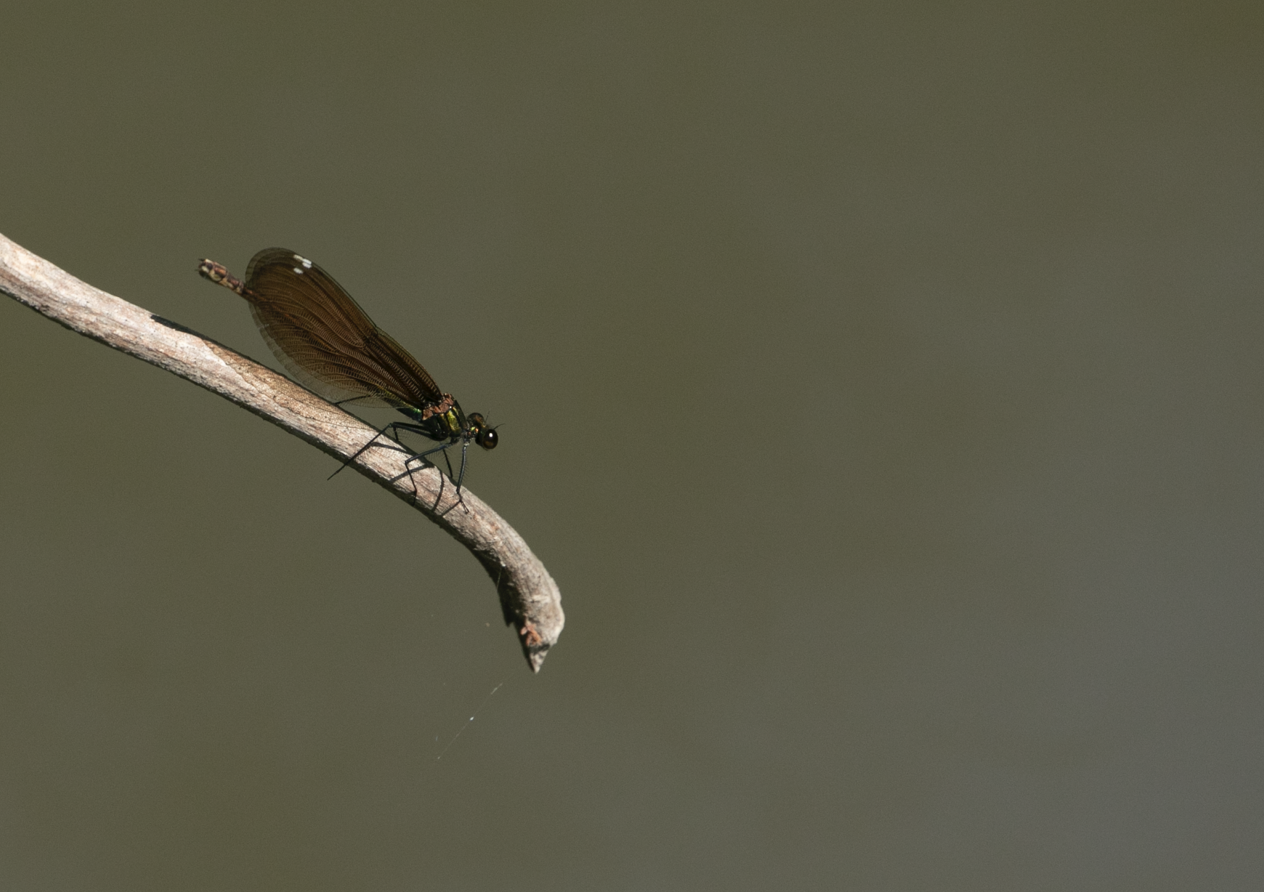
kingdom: Animalia
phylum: Arthropoda
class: Insecta
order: Odonata
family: Calopterygidae
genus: Calopteryx
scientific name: Calopteryx virgo
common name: Beautiful demoiselle
